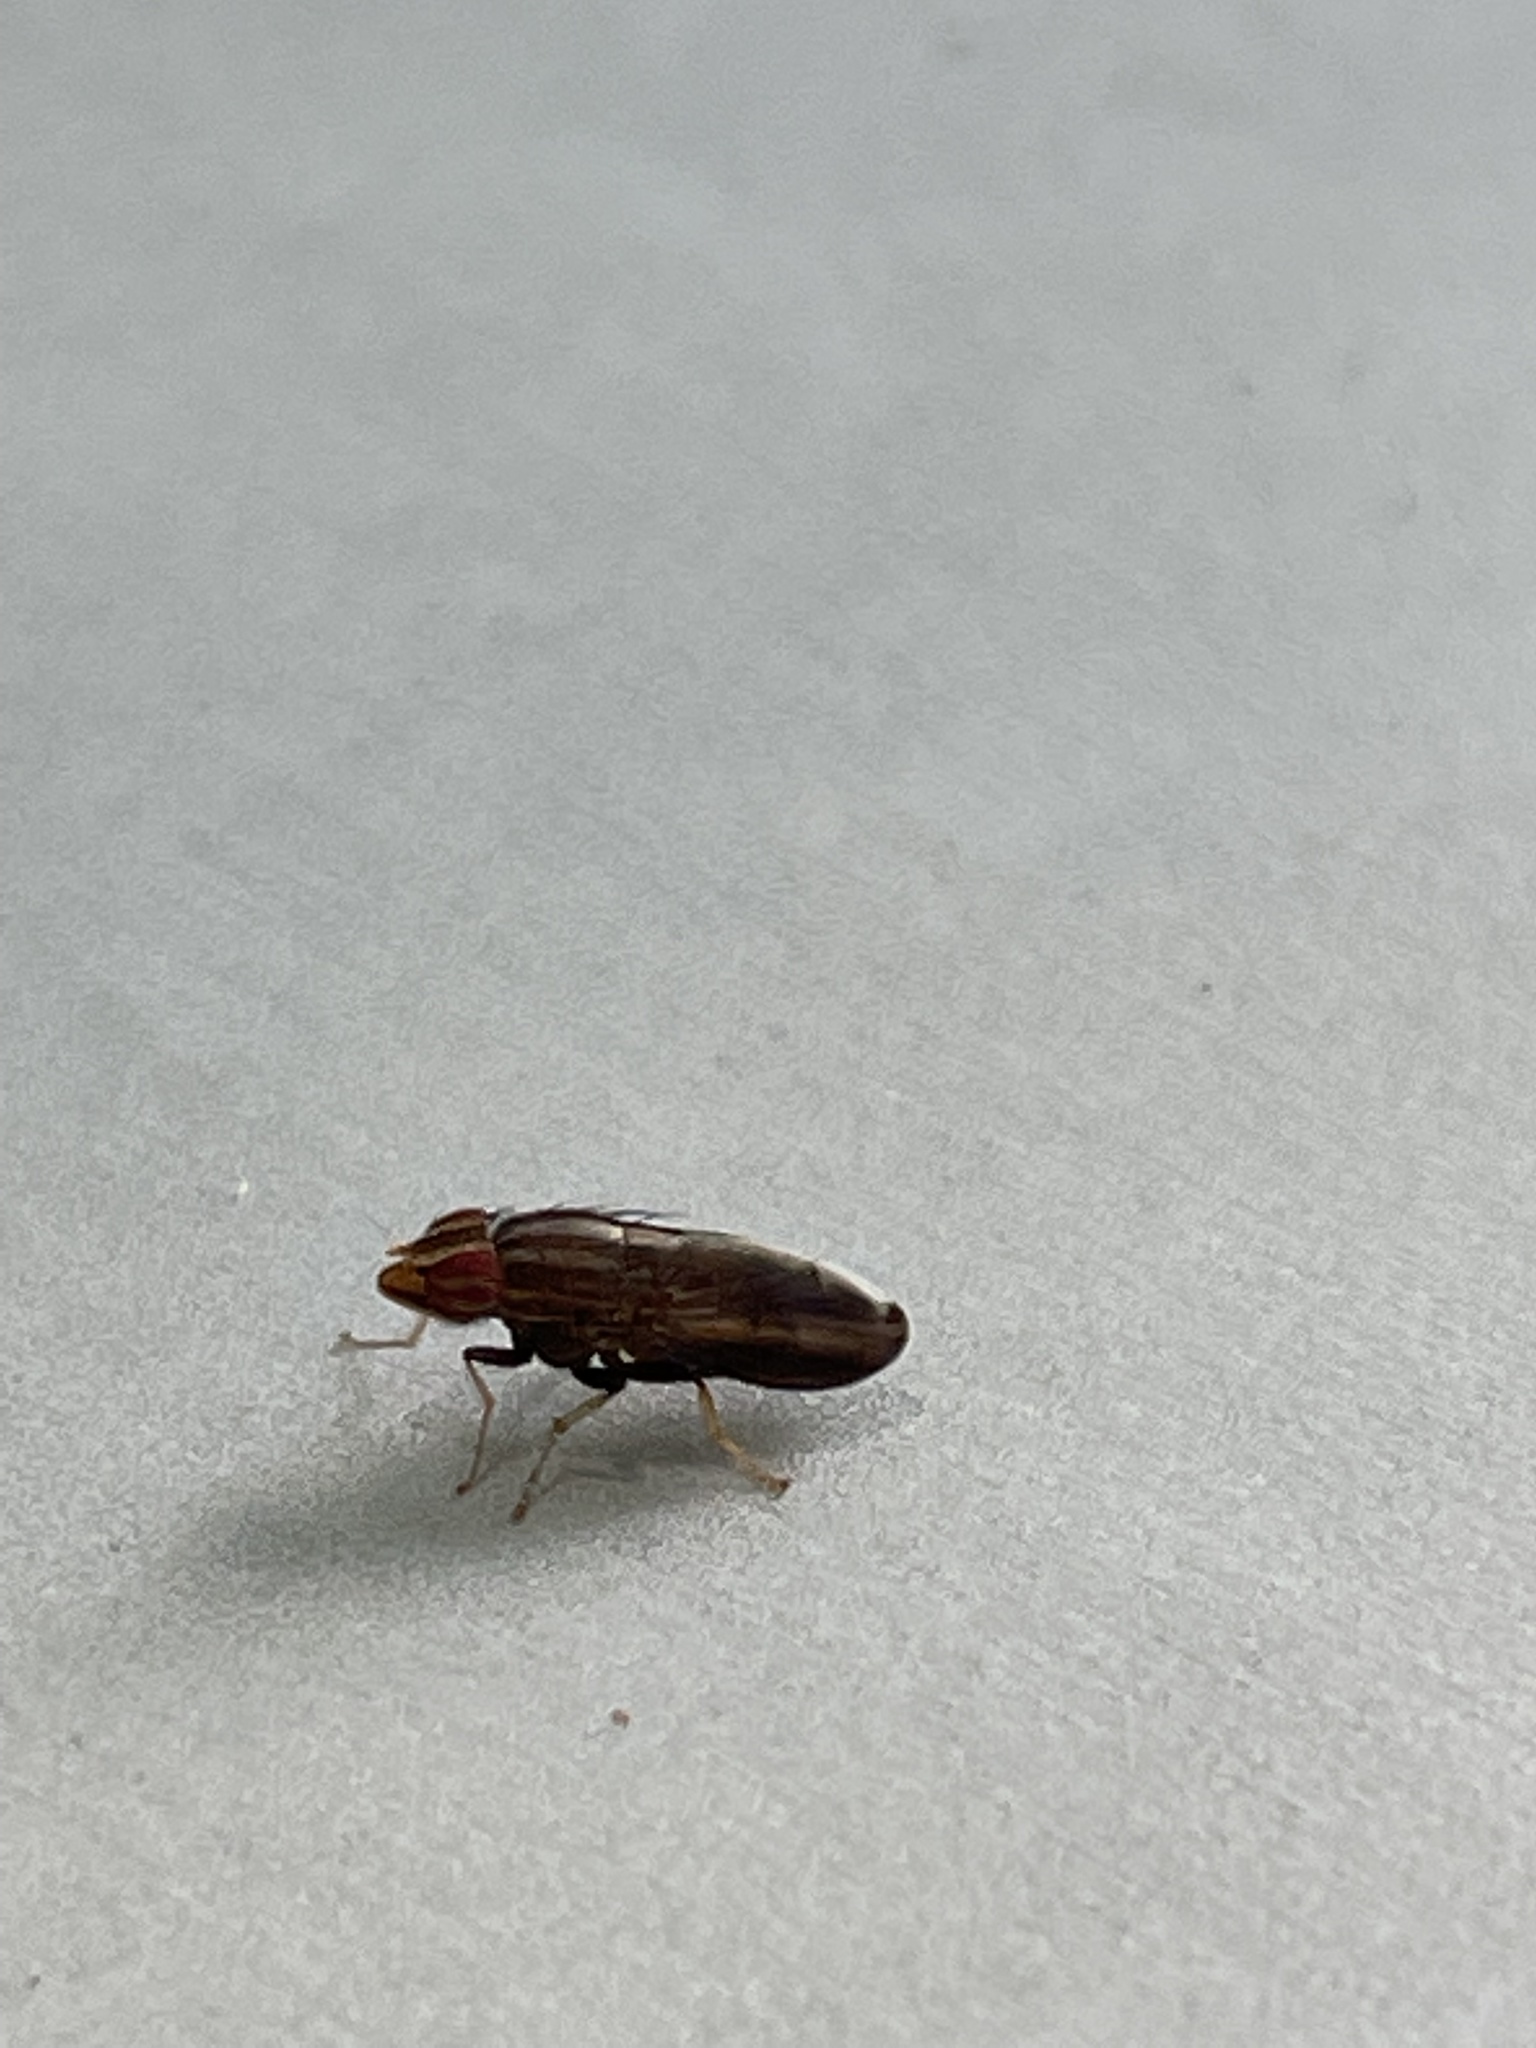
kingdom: Animalia
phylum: Arthropoda
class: Insecta
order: Diptera
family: Lauxaniidae
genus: Cephaloconus
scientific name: Cephaloconus cyprinus
